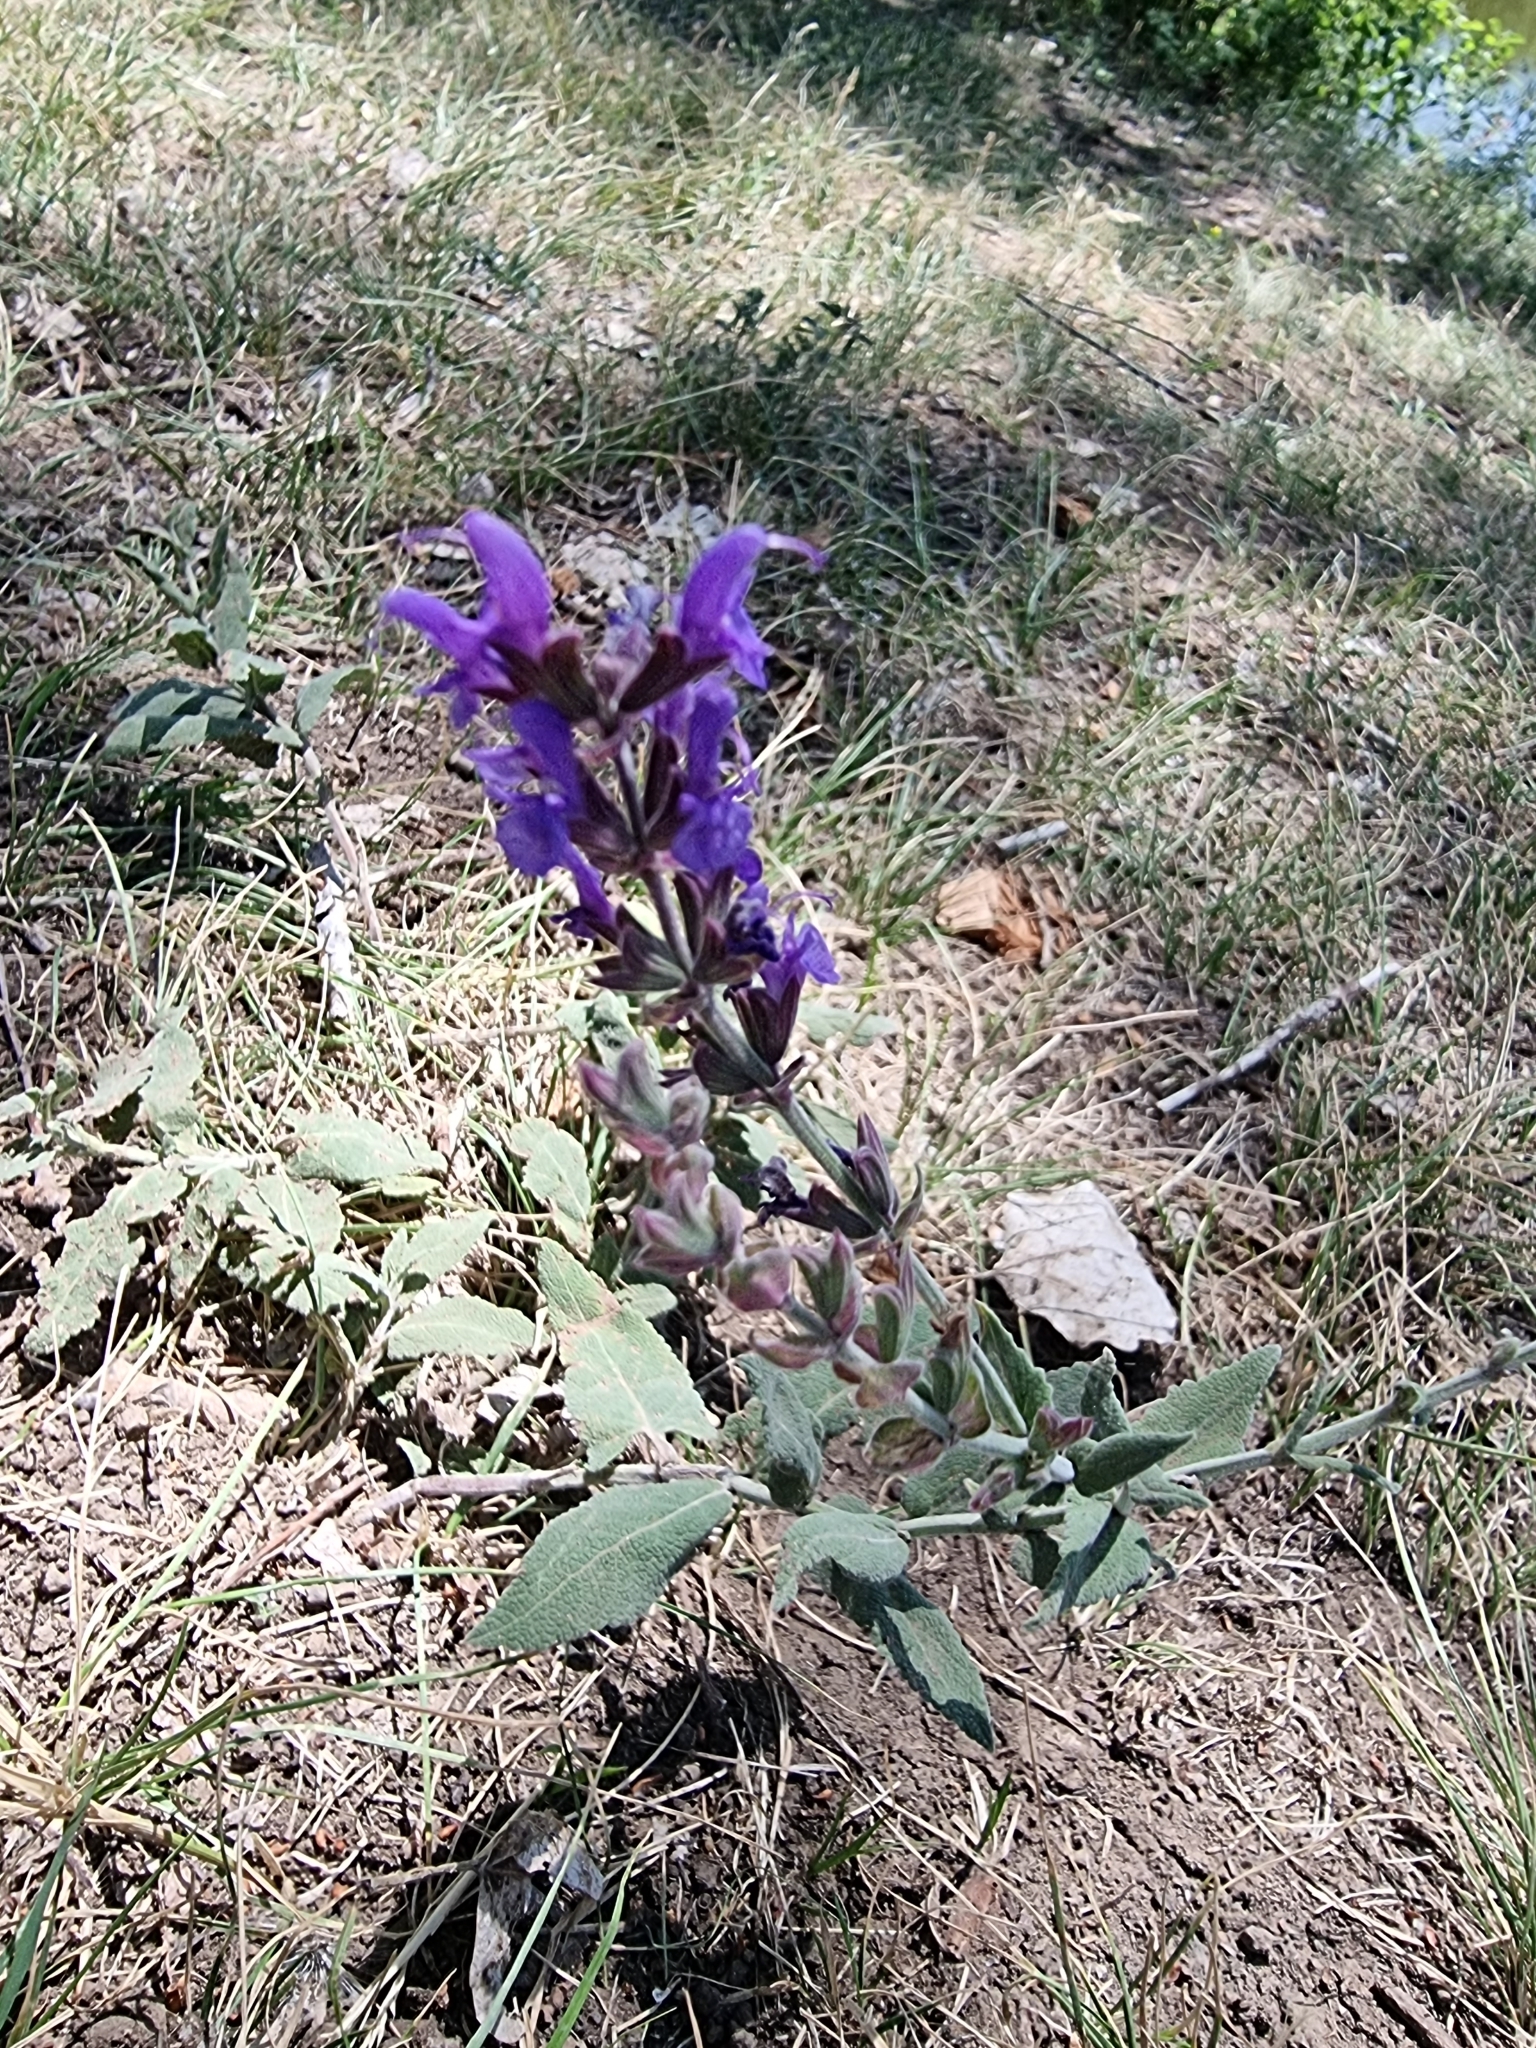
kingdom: Plantae
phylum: Tracheophyta
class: Magnoliopsida
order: Lamiales
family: Lamiaceae
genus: Salvia
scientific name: Salvia nemorosa
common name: Balkan clary
